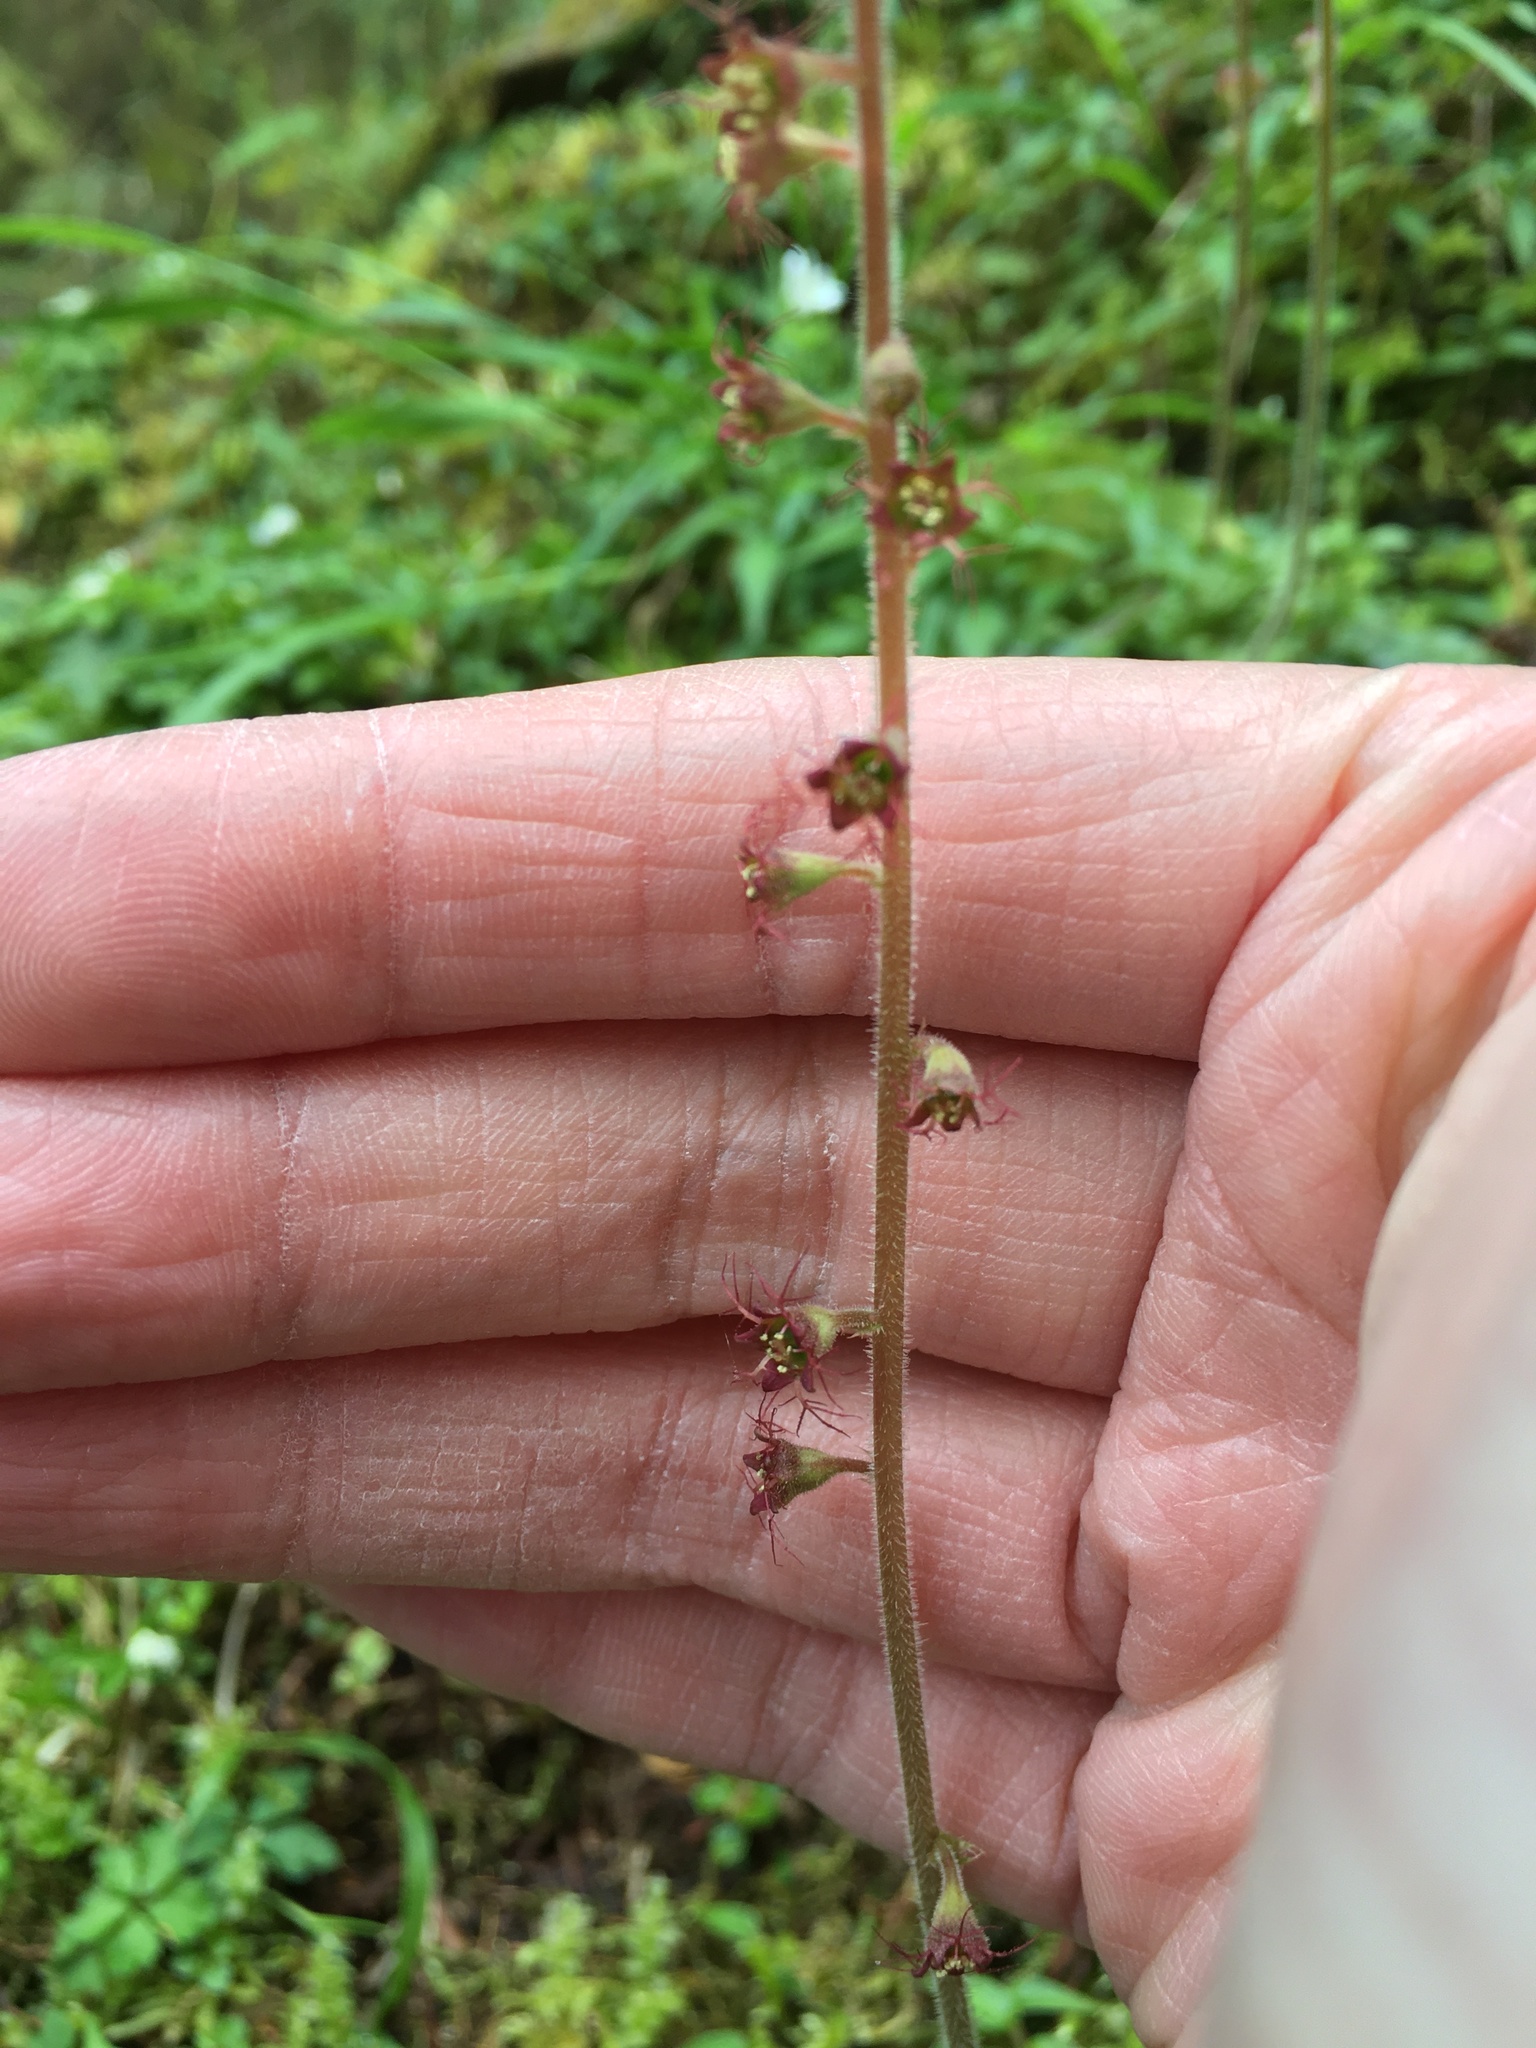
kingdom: Plantae
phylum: Tracheophyta
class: Magnoliopsida
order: Saxifragales
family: Saxifragaceae
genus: Asimitellaria
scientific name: Asimitellaria formosana
